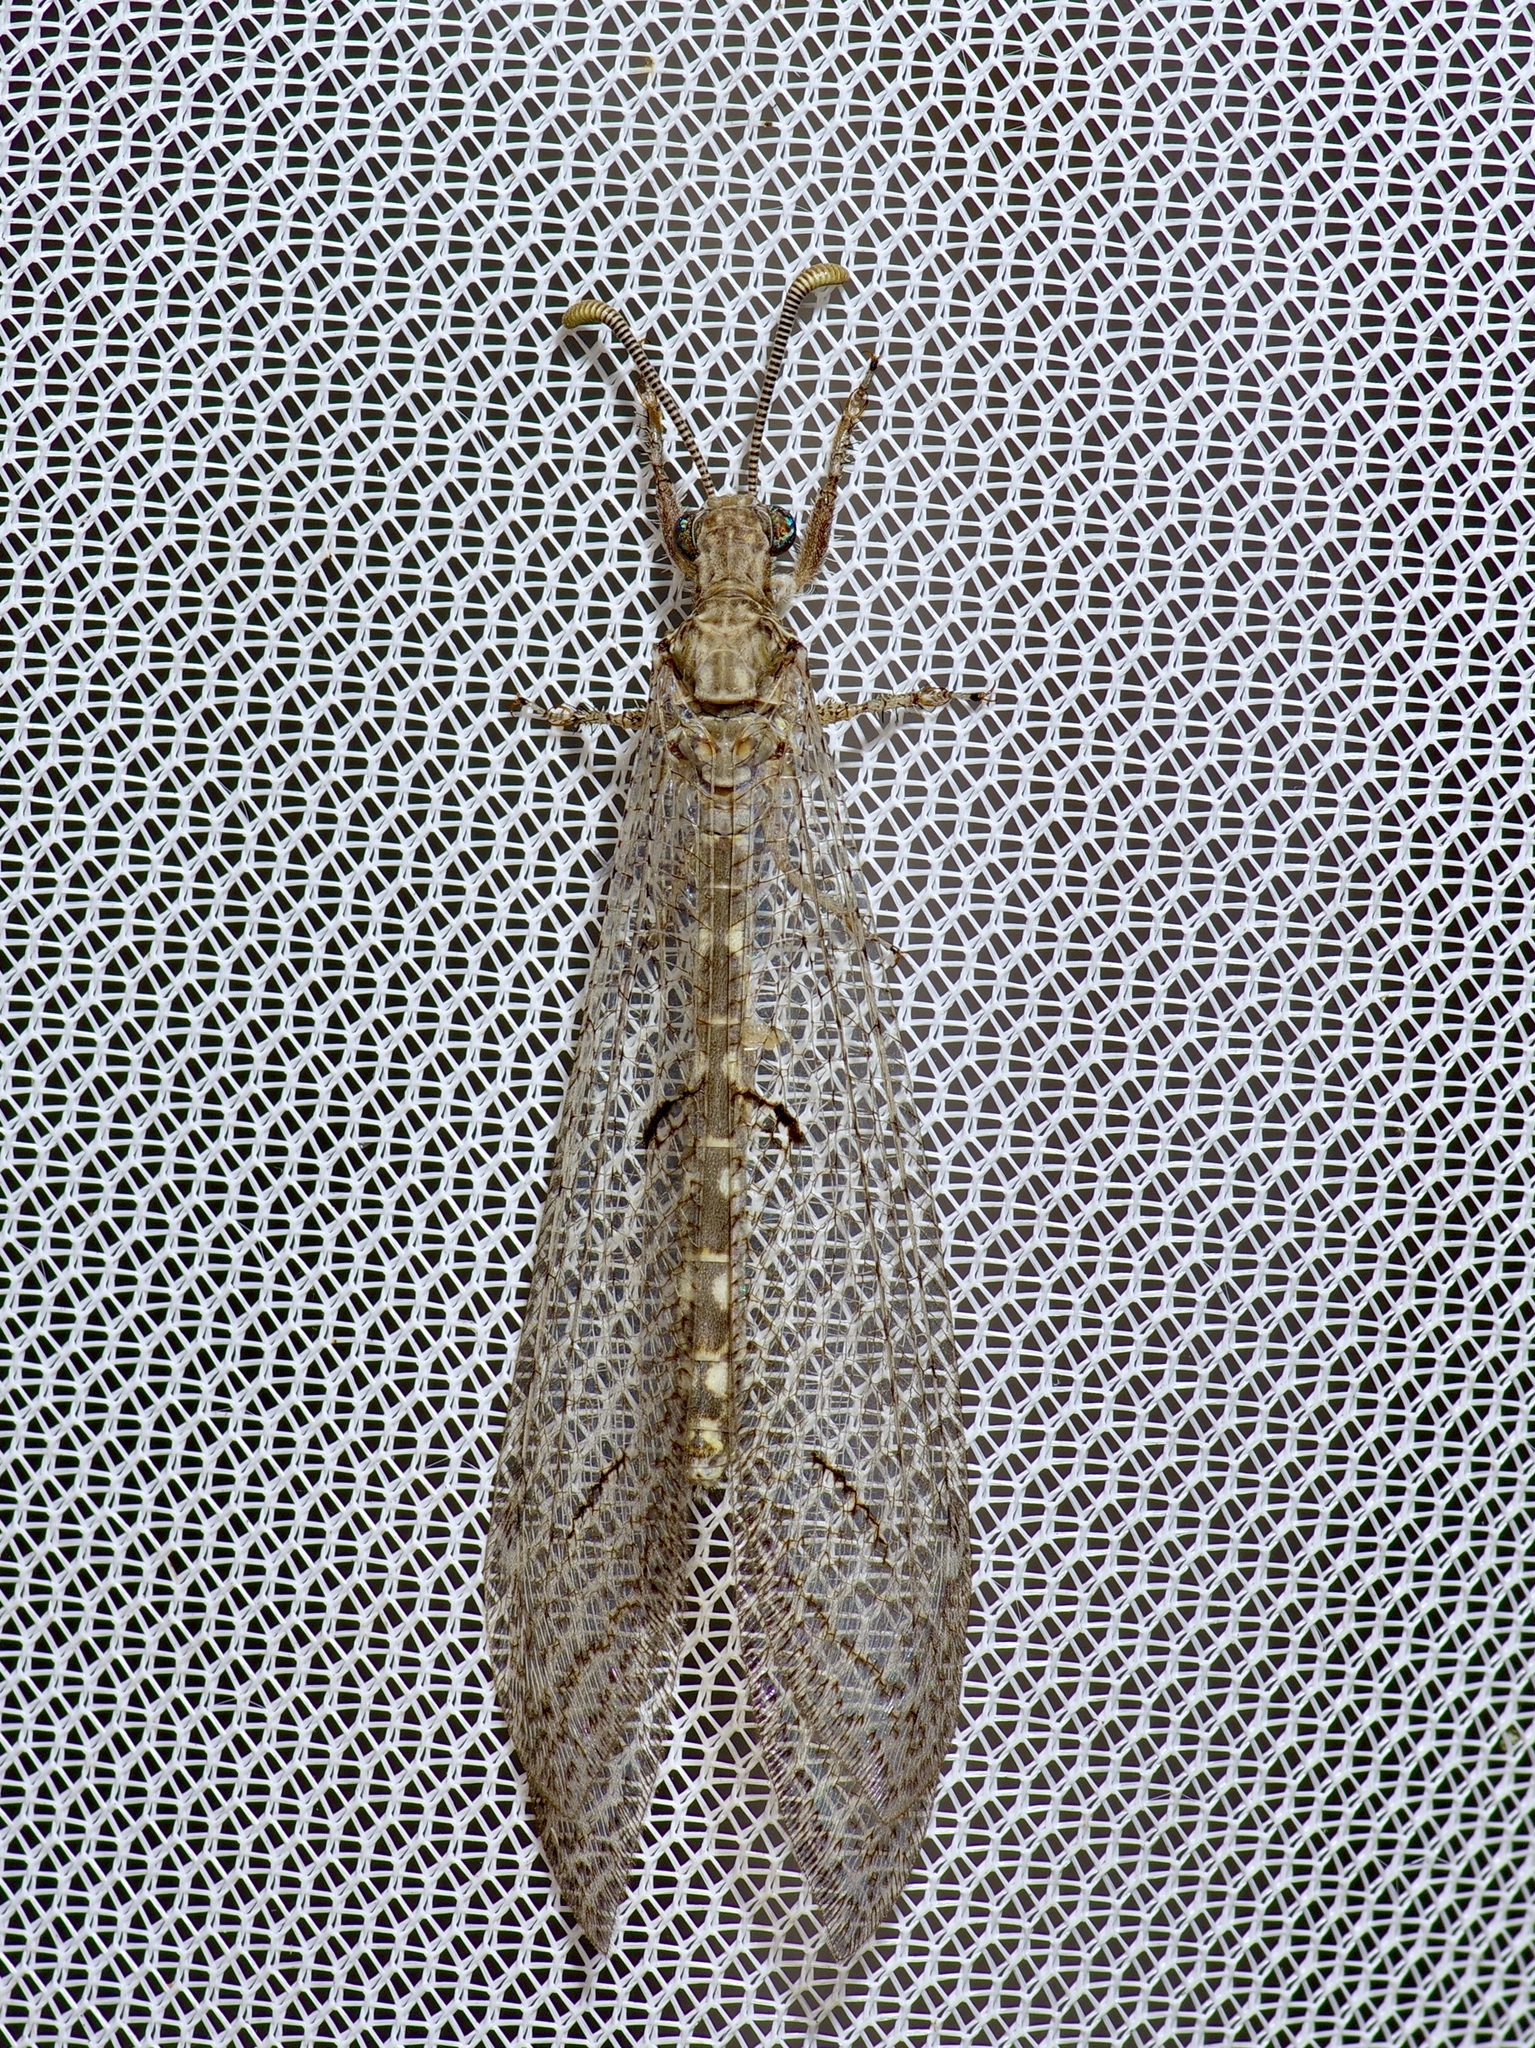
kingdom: Animalia
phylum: Arthropoda
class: Insecta
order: Neuroptera
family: Myrmeleontidae
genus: Euptilon
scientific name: Euptilon ornatum
